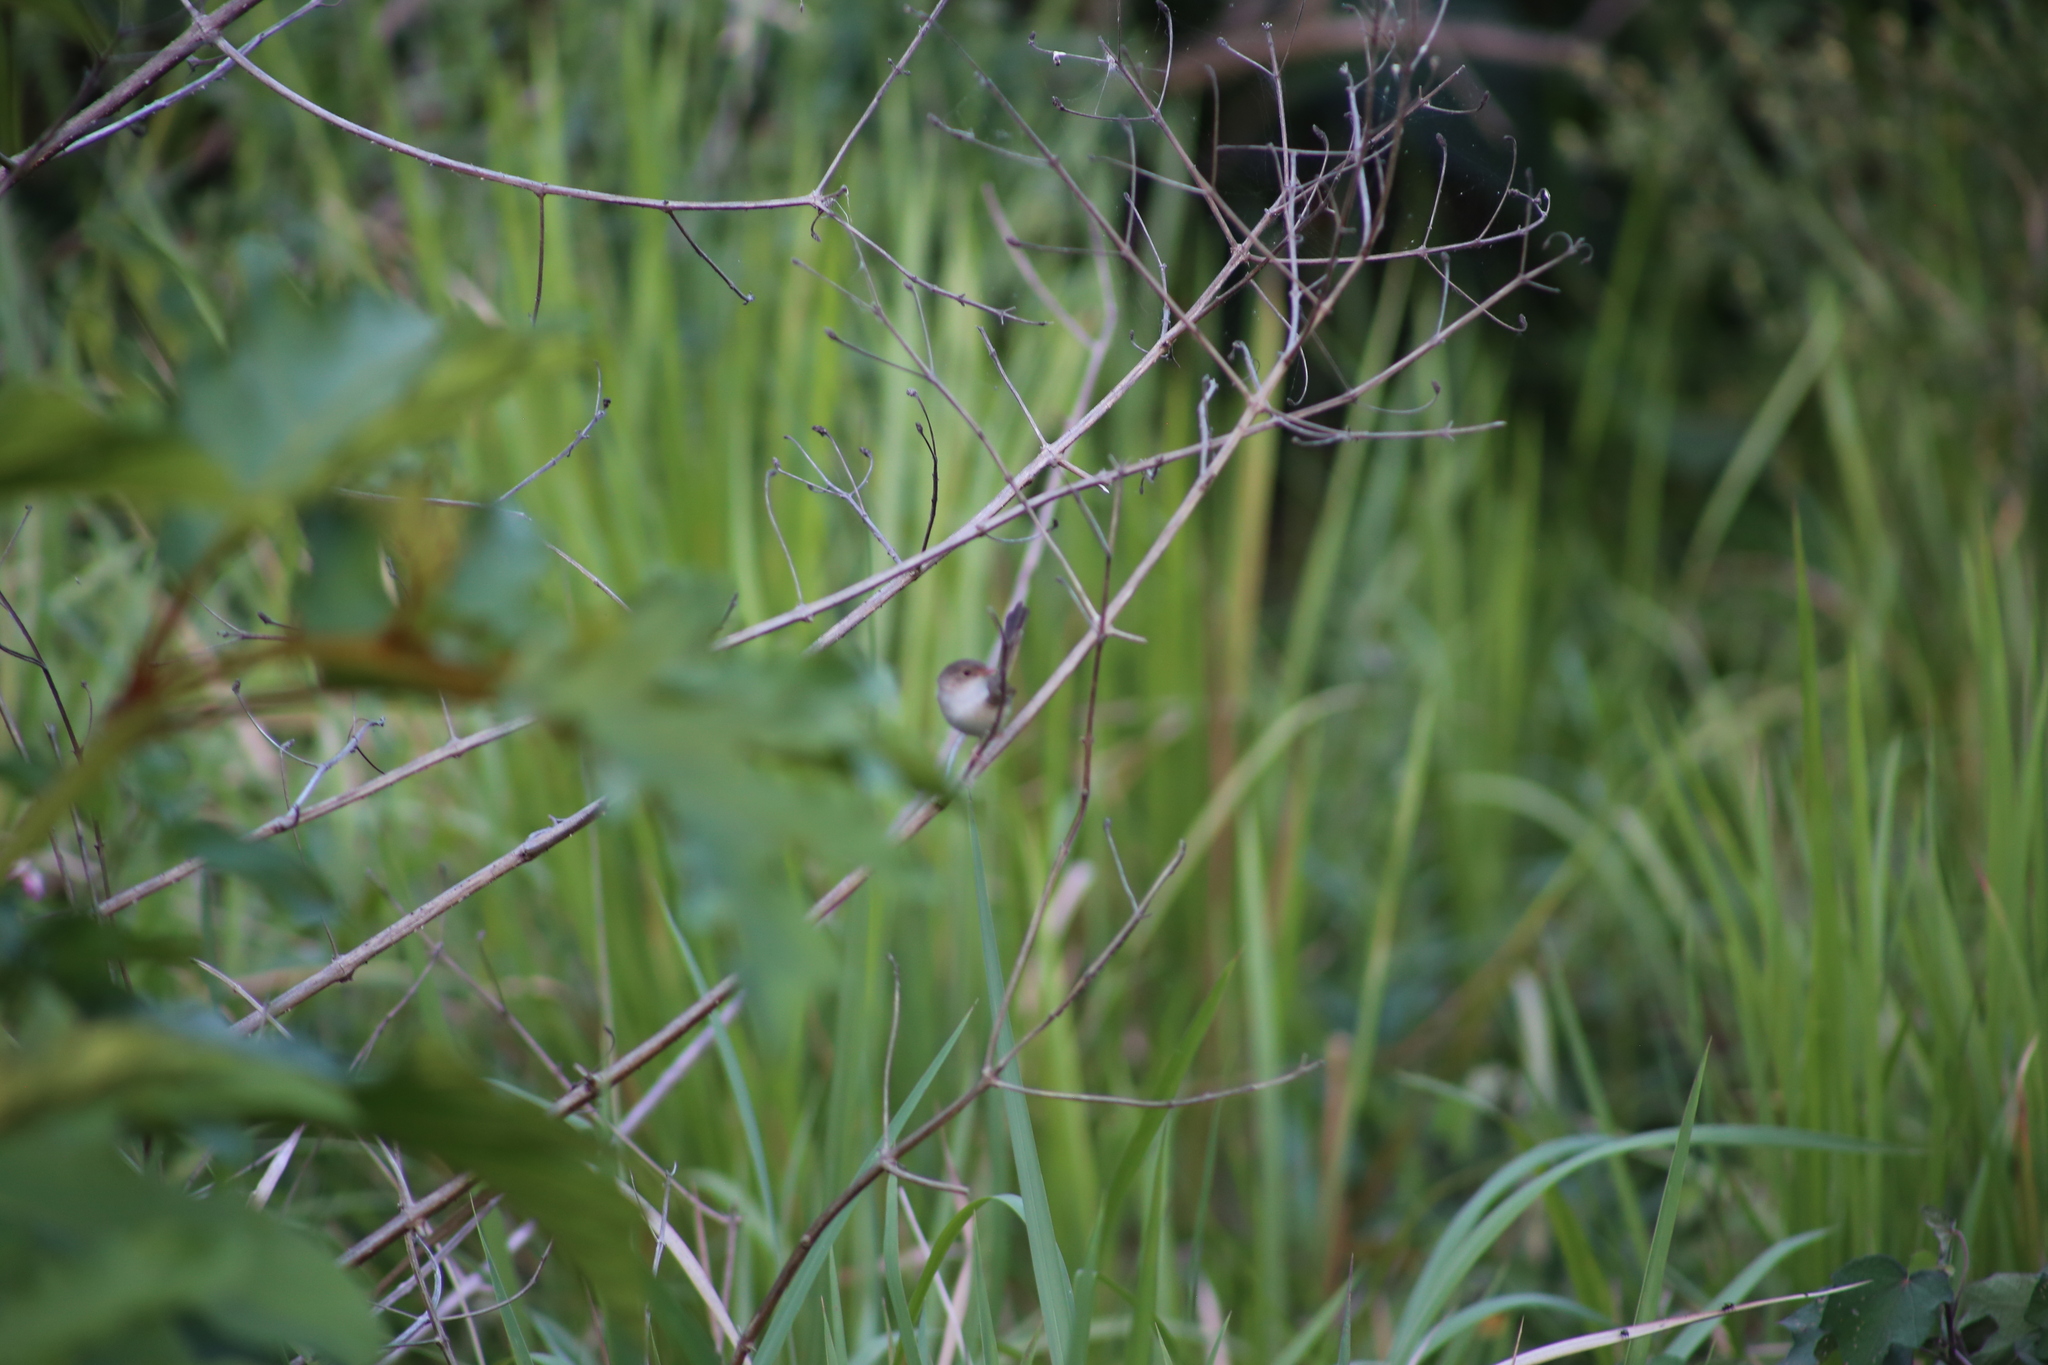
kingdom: Animalia
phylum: Chordata
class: Aves
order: Passeriformes
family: Maluridae
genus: Malurus
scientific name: Malurus melanocephalus
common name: Red-backed fairywren
